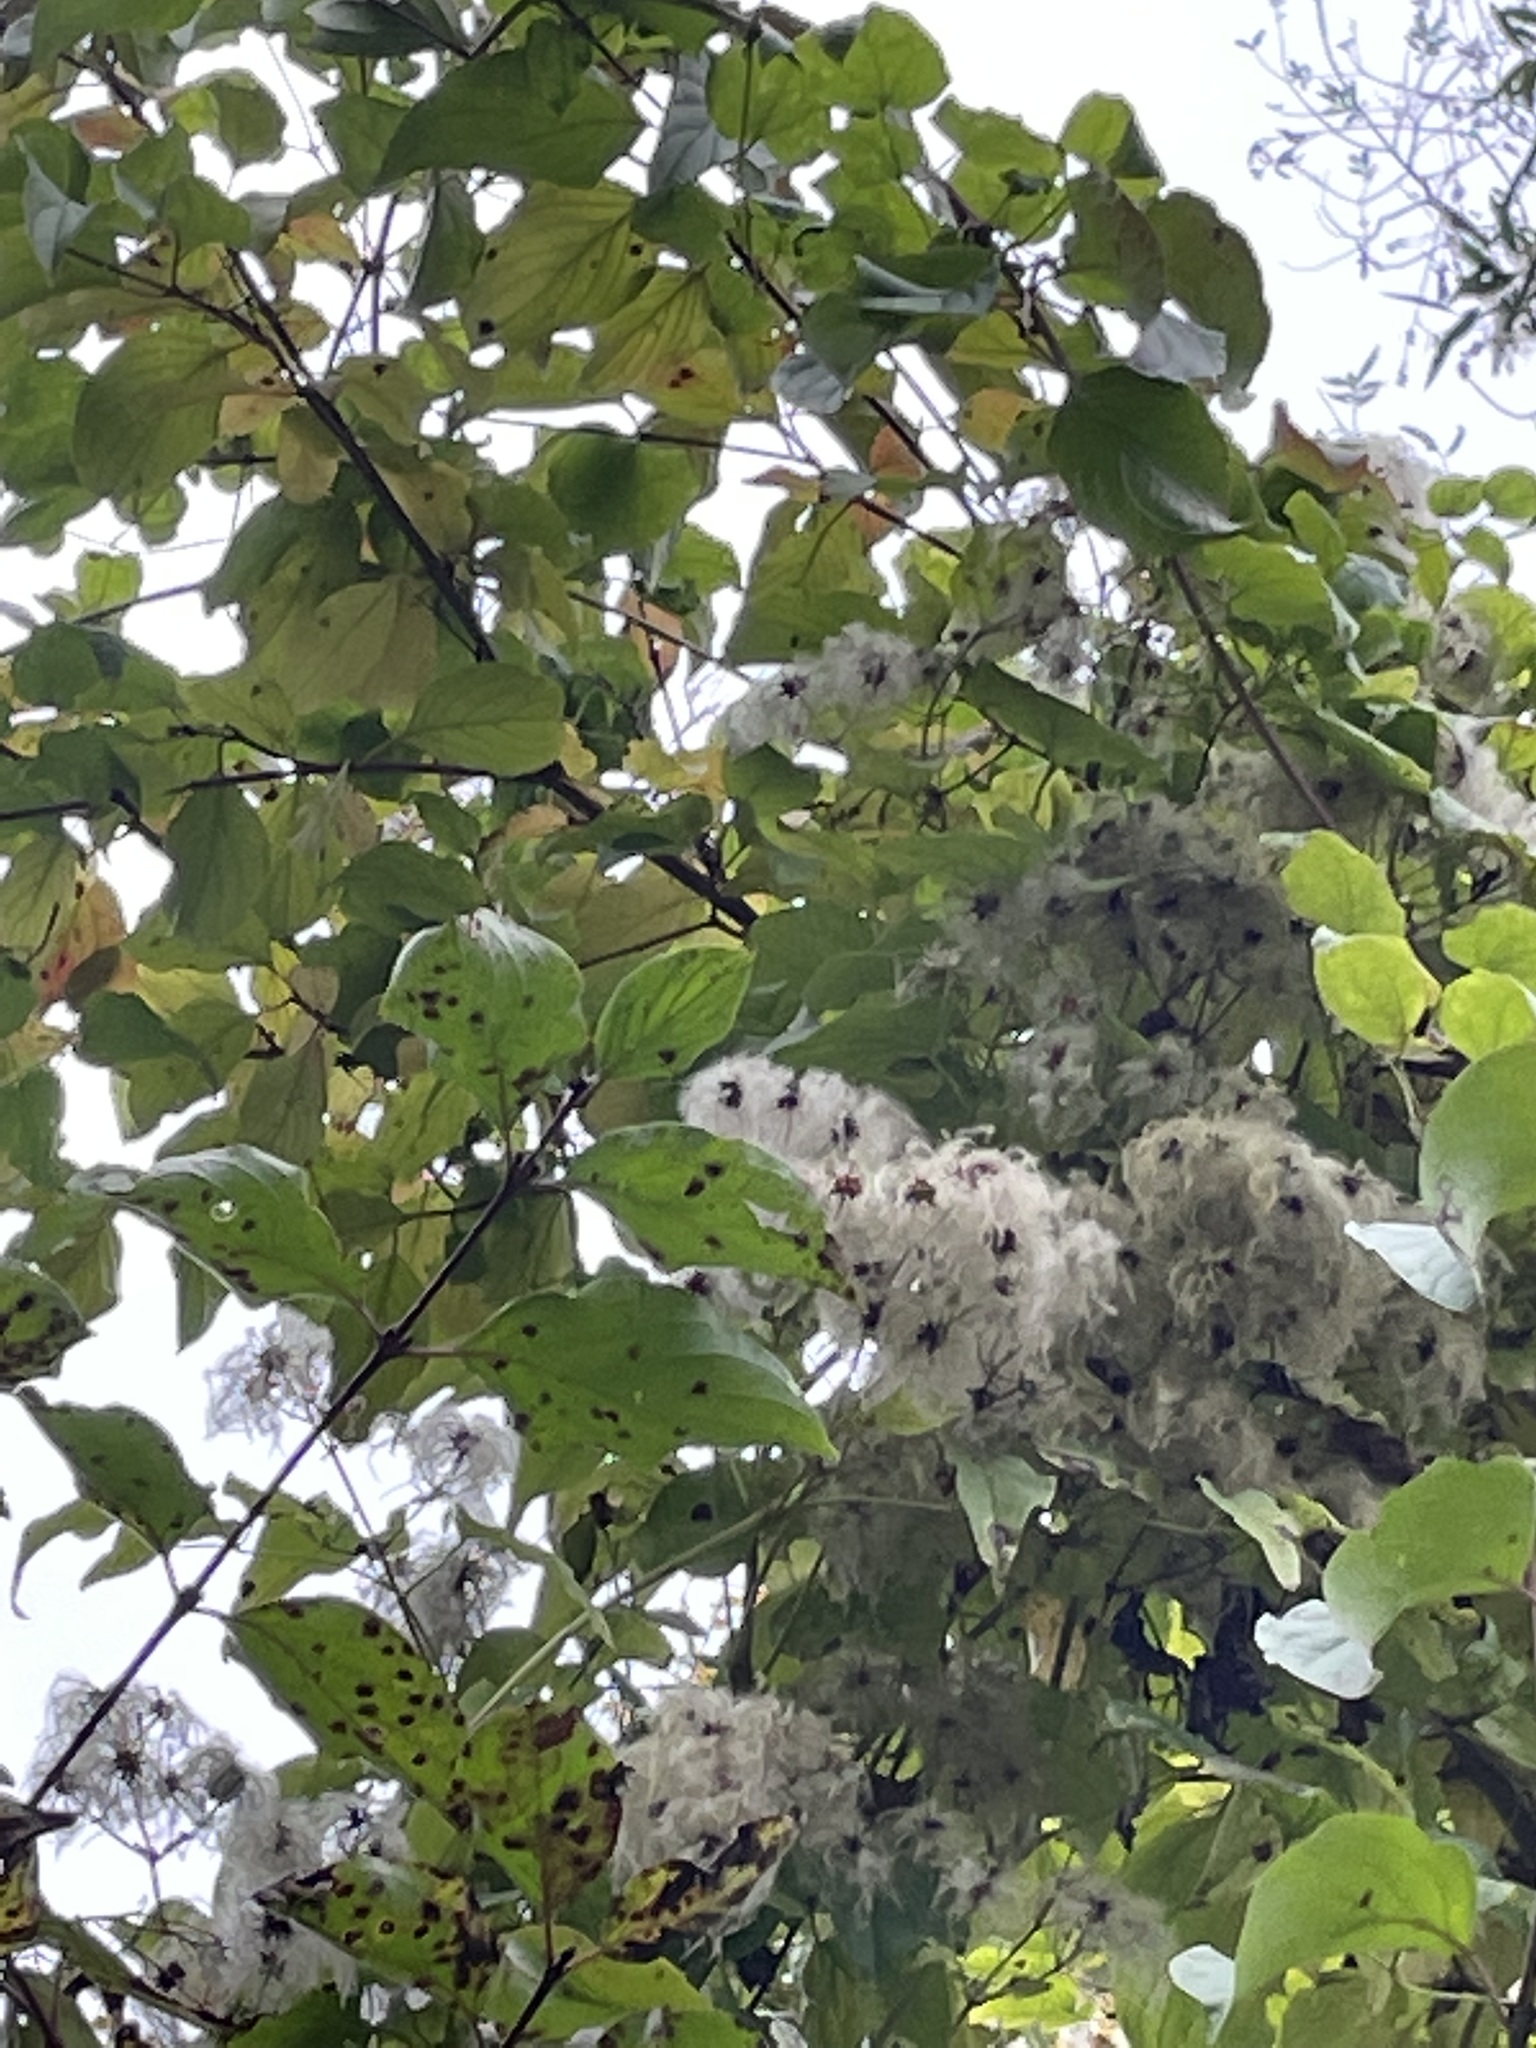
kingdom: Plantae
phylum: Tracheophyta
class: Magnoliopsida
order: Ranunculales
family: Ranunculaceae
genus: Clematis
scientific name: Clematis vitalba
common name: Evergreen clematis
